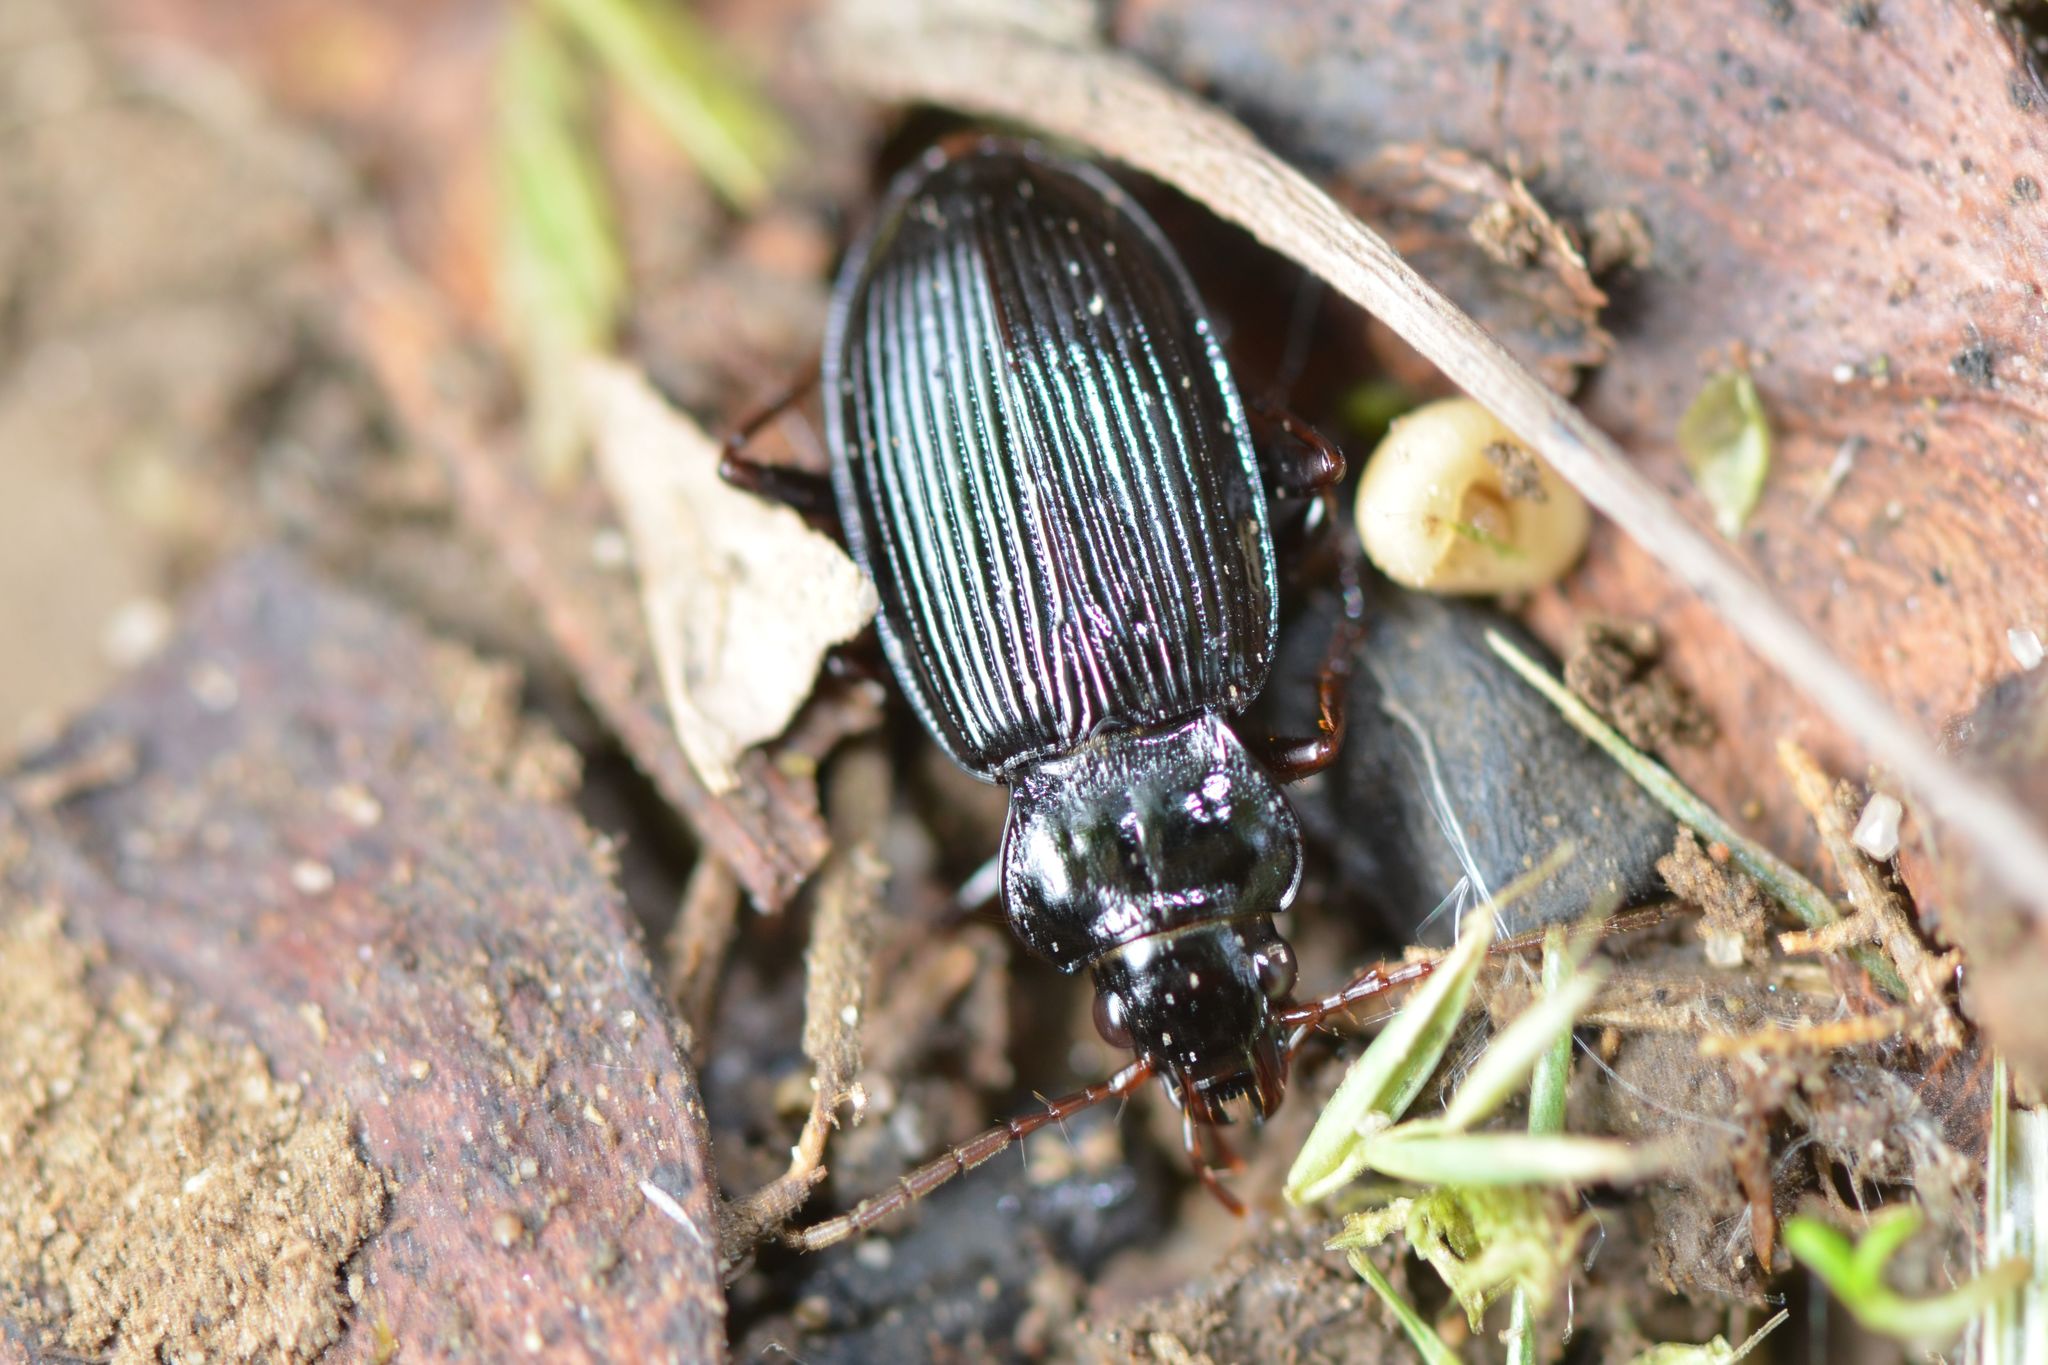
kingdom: Animalia
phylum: Arthropoda
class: Insecta
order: Coleoptera
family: Carabidae
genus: Nebria
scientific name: Nebria brevicollis
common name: Short-necked gazelle beetle
